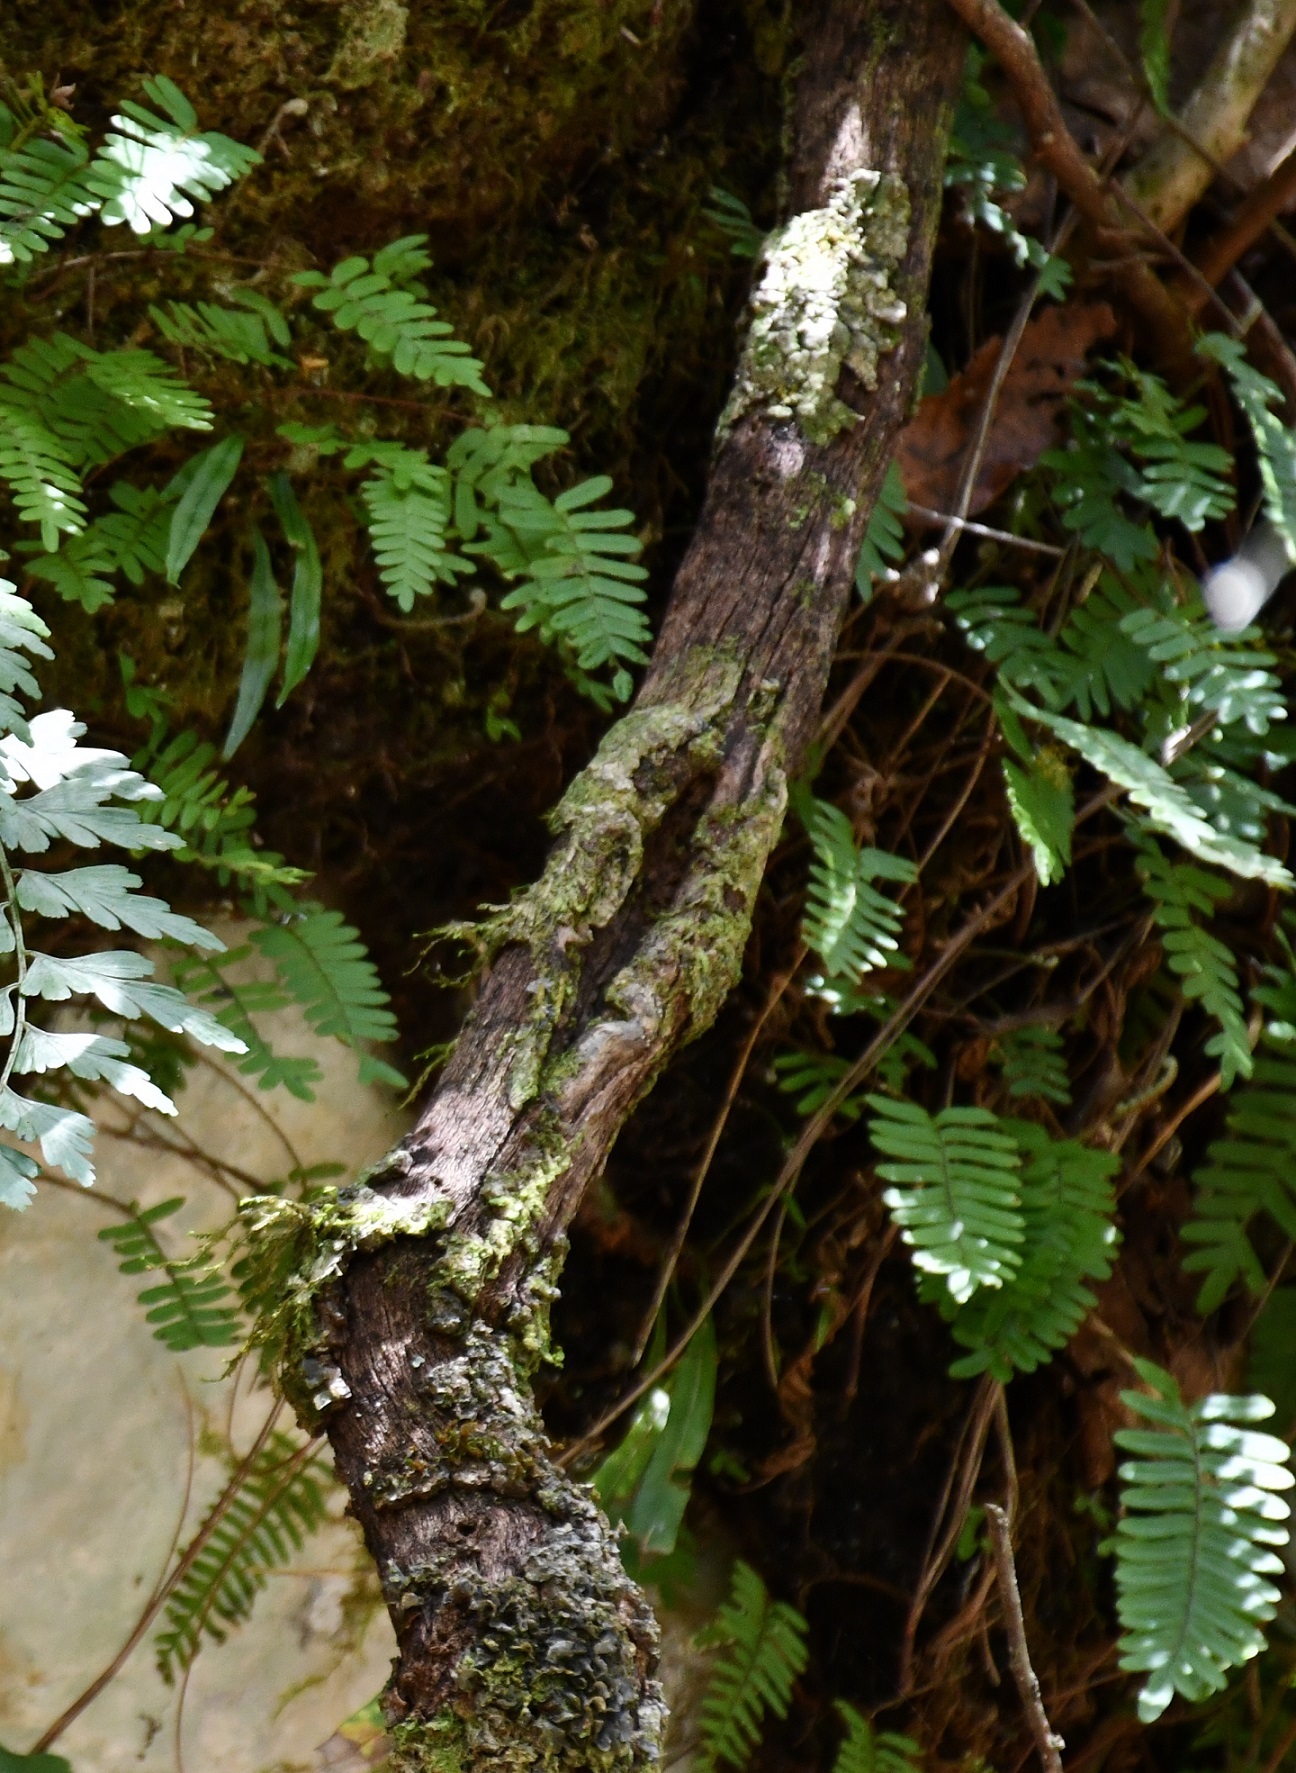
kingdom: Plantae
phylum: Tracheophyta
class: Polypodiopsida
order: Polypodiales
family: Polypodiaceae
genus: Pleopeltis
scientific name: Pleopeltis polypodioides
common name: Resurrection fern
